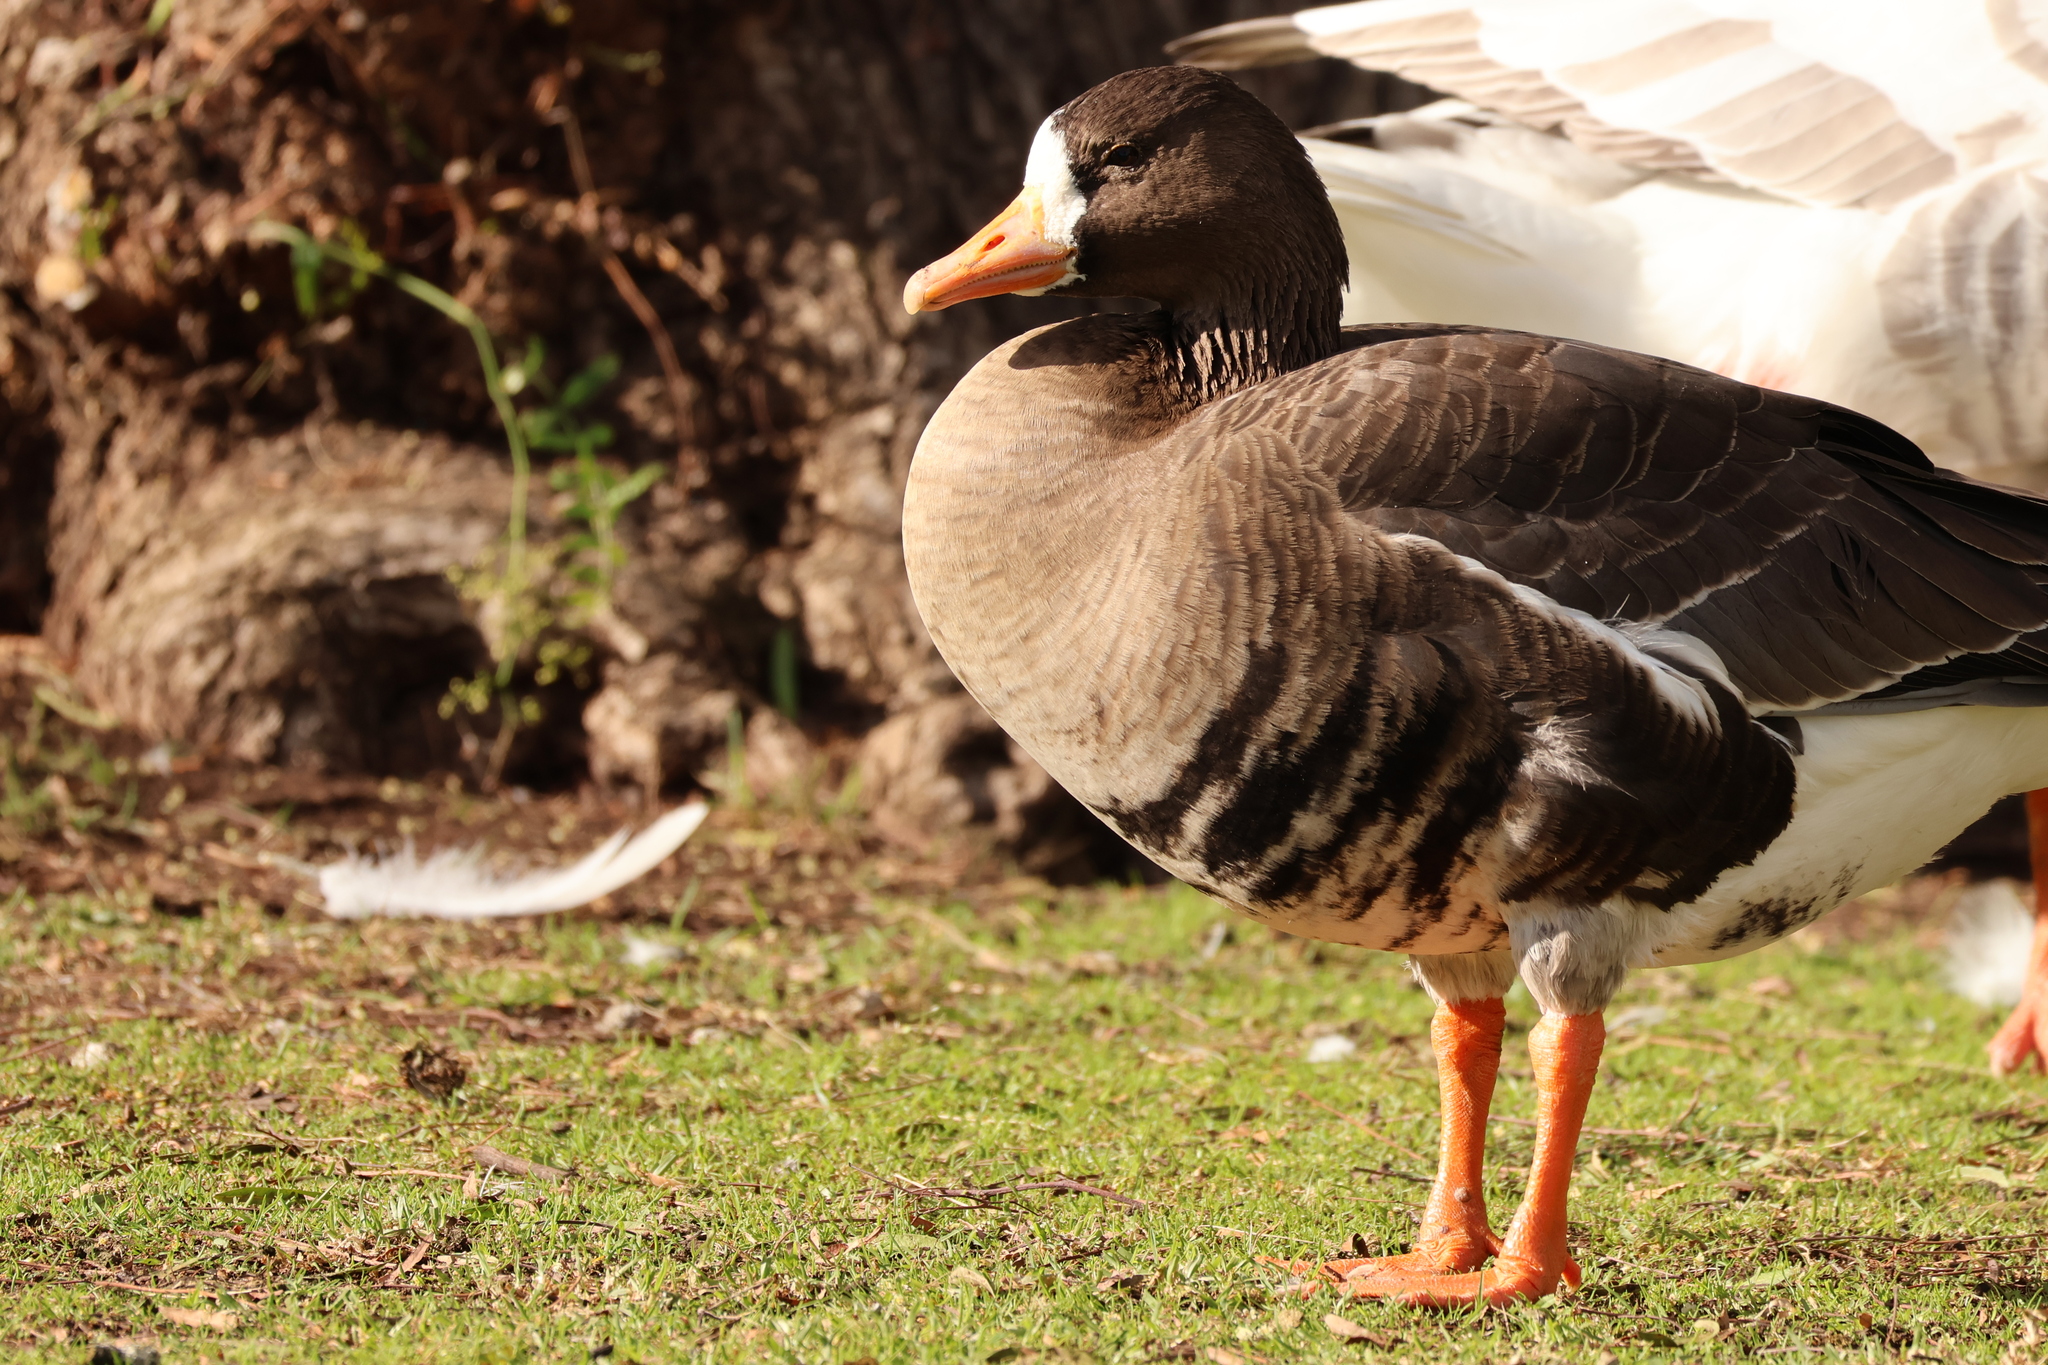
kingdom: Animalia
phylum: Chordata
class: Aves
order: Anseriformes
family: Anatidae
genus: Anser
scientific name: Anser albifrons
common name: Greater white-fronted goose
